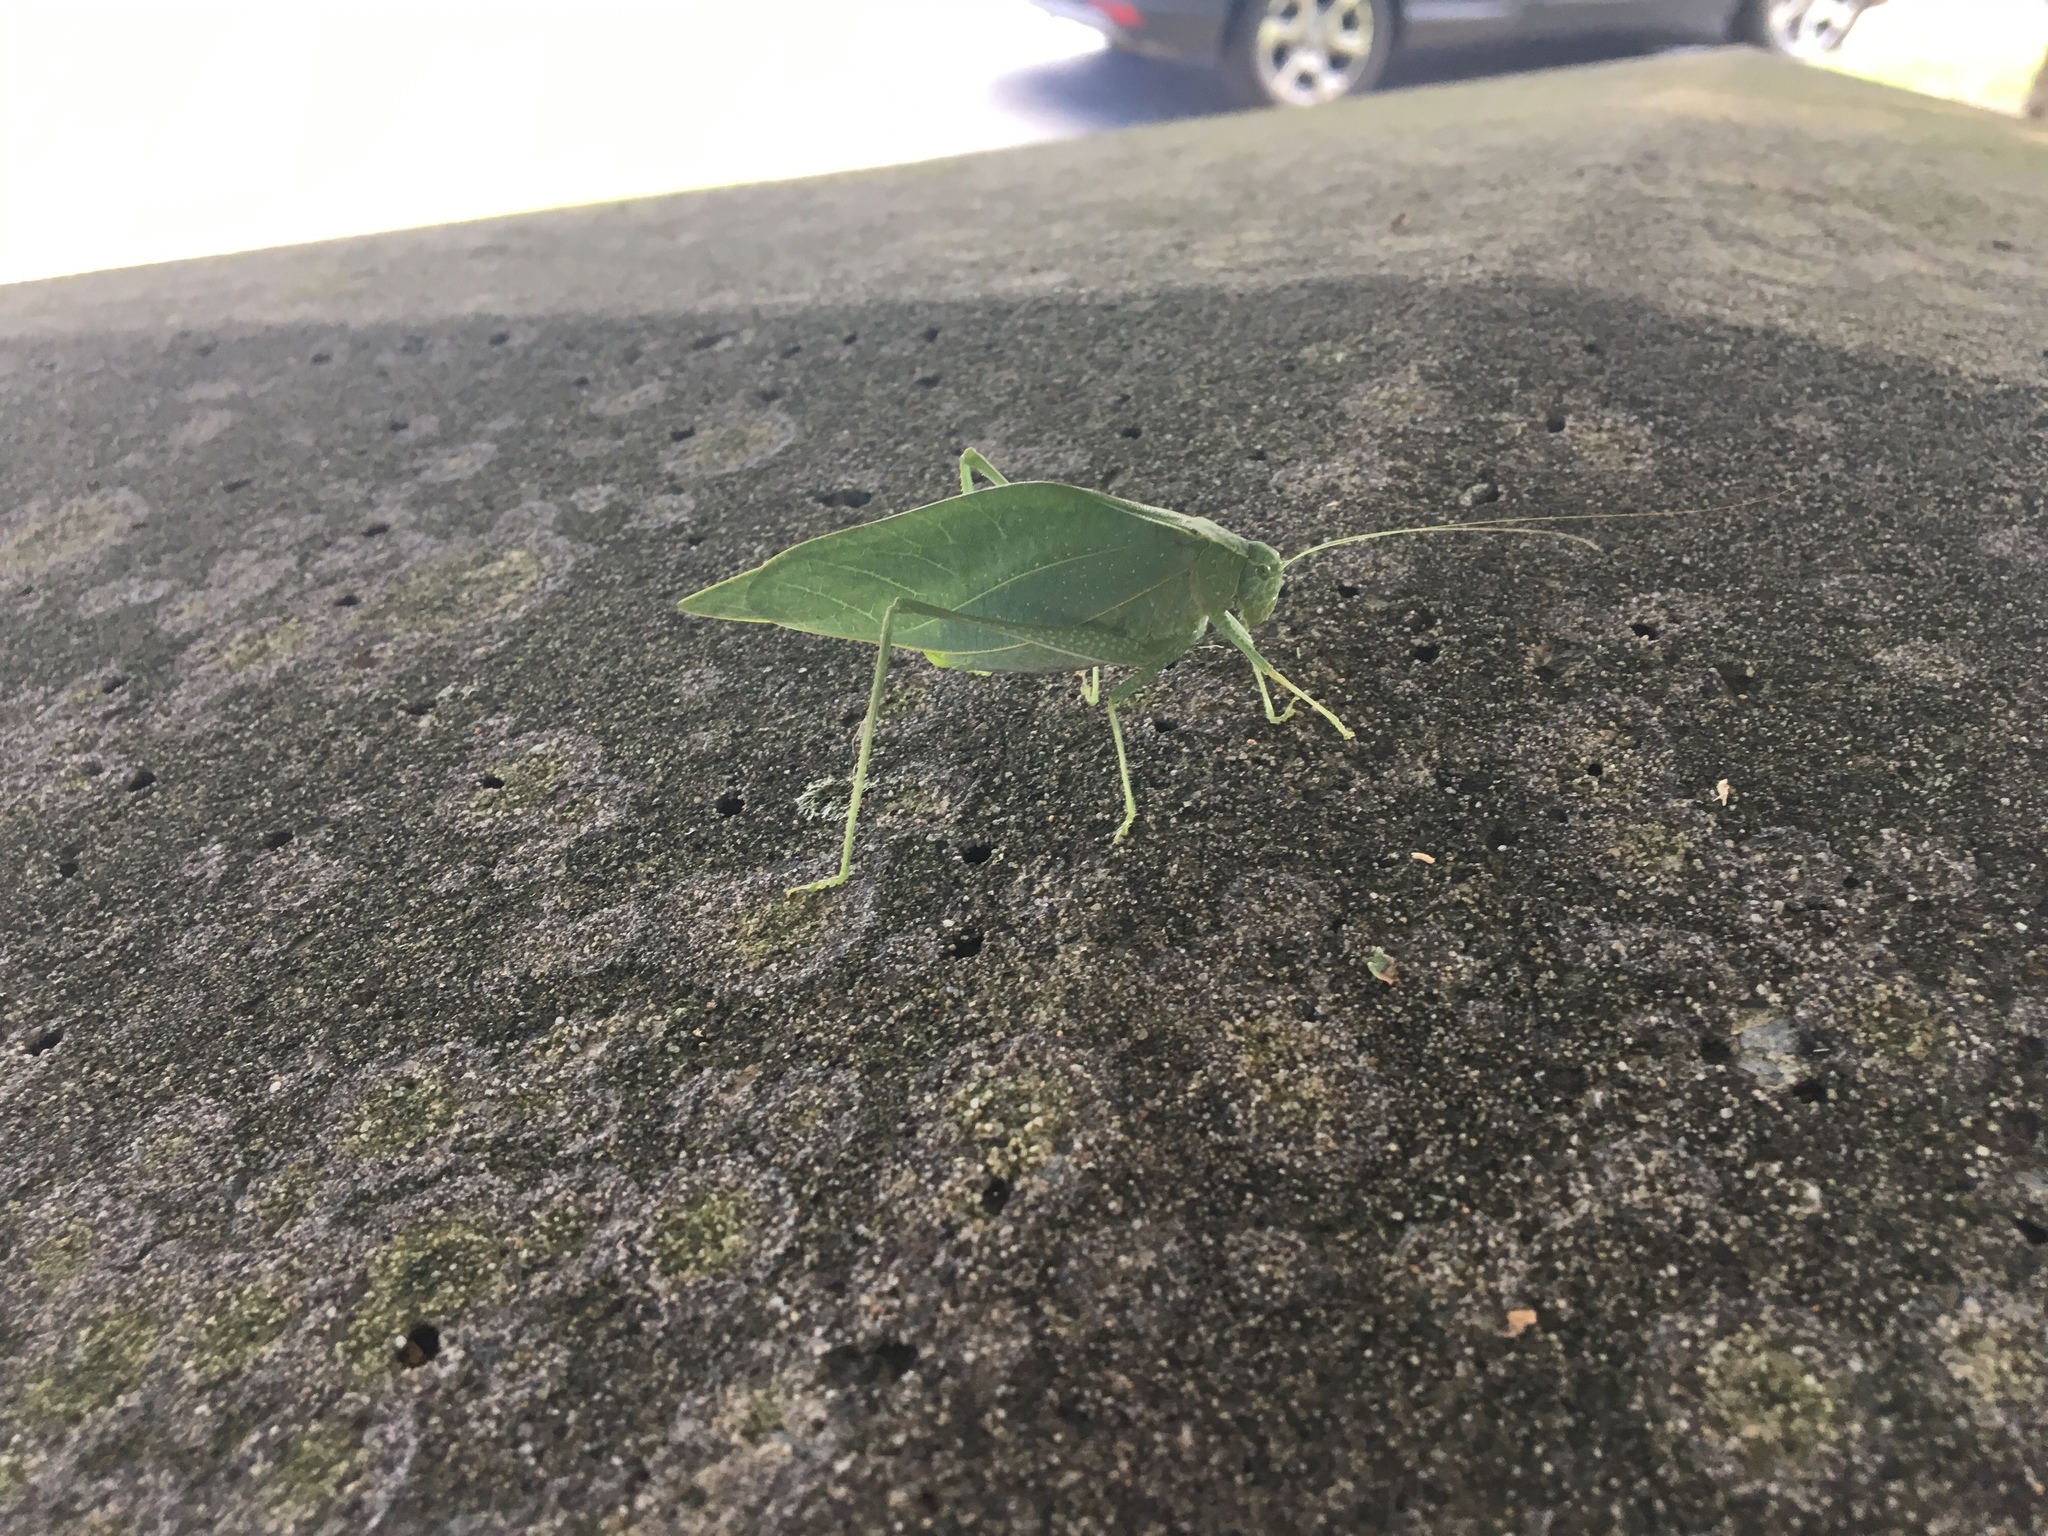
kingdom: Animalia
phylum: Arthropoda
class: Insecta
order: Orthoptera
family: Tettigoniidae
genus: Microcentrum
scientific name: Microcentrum rhombifolium
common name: Broad-winged katydid
